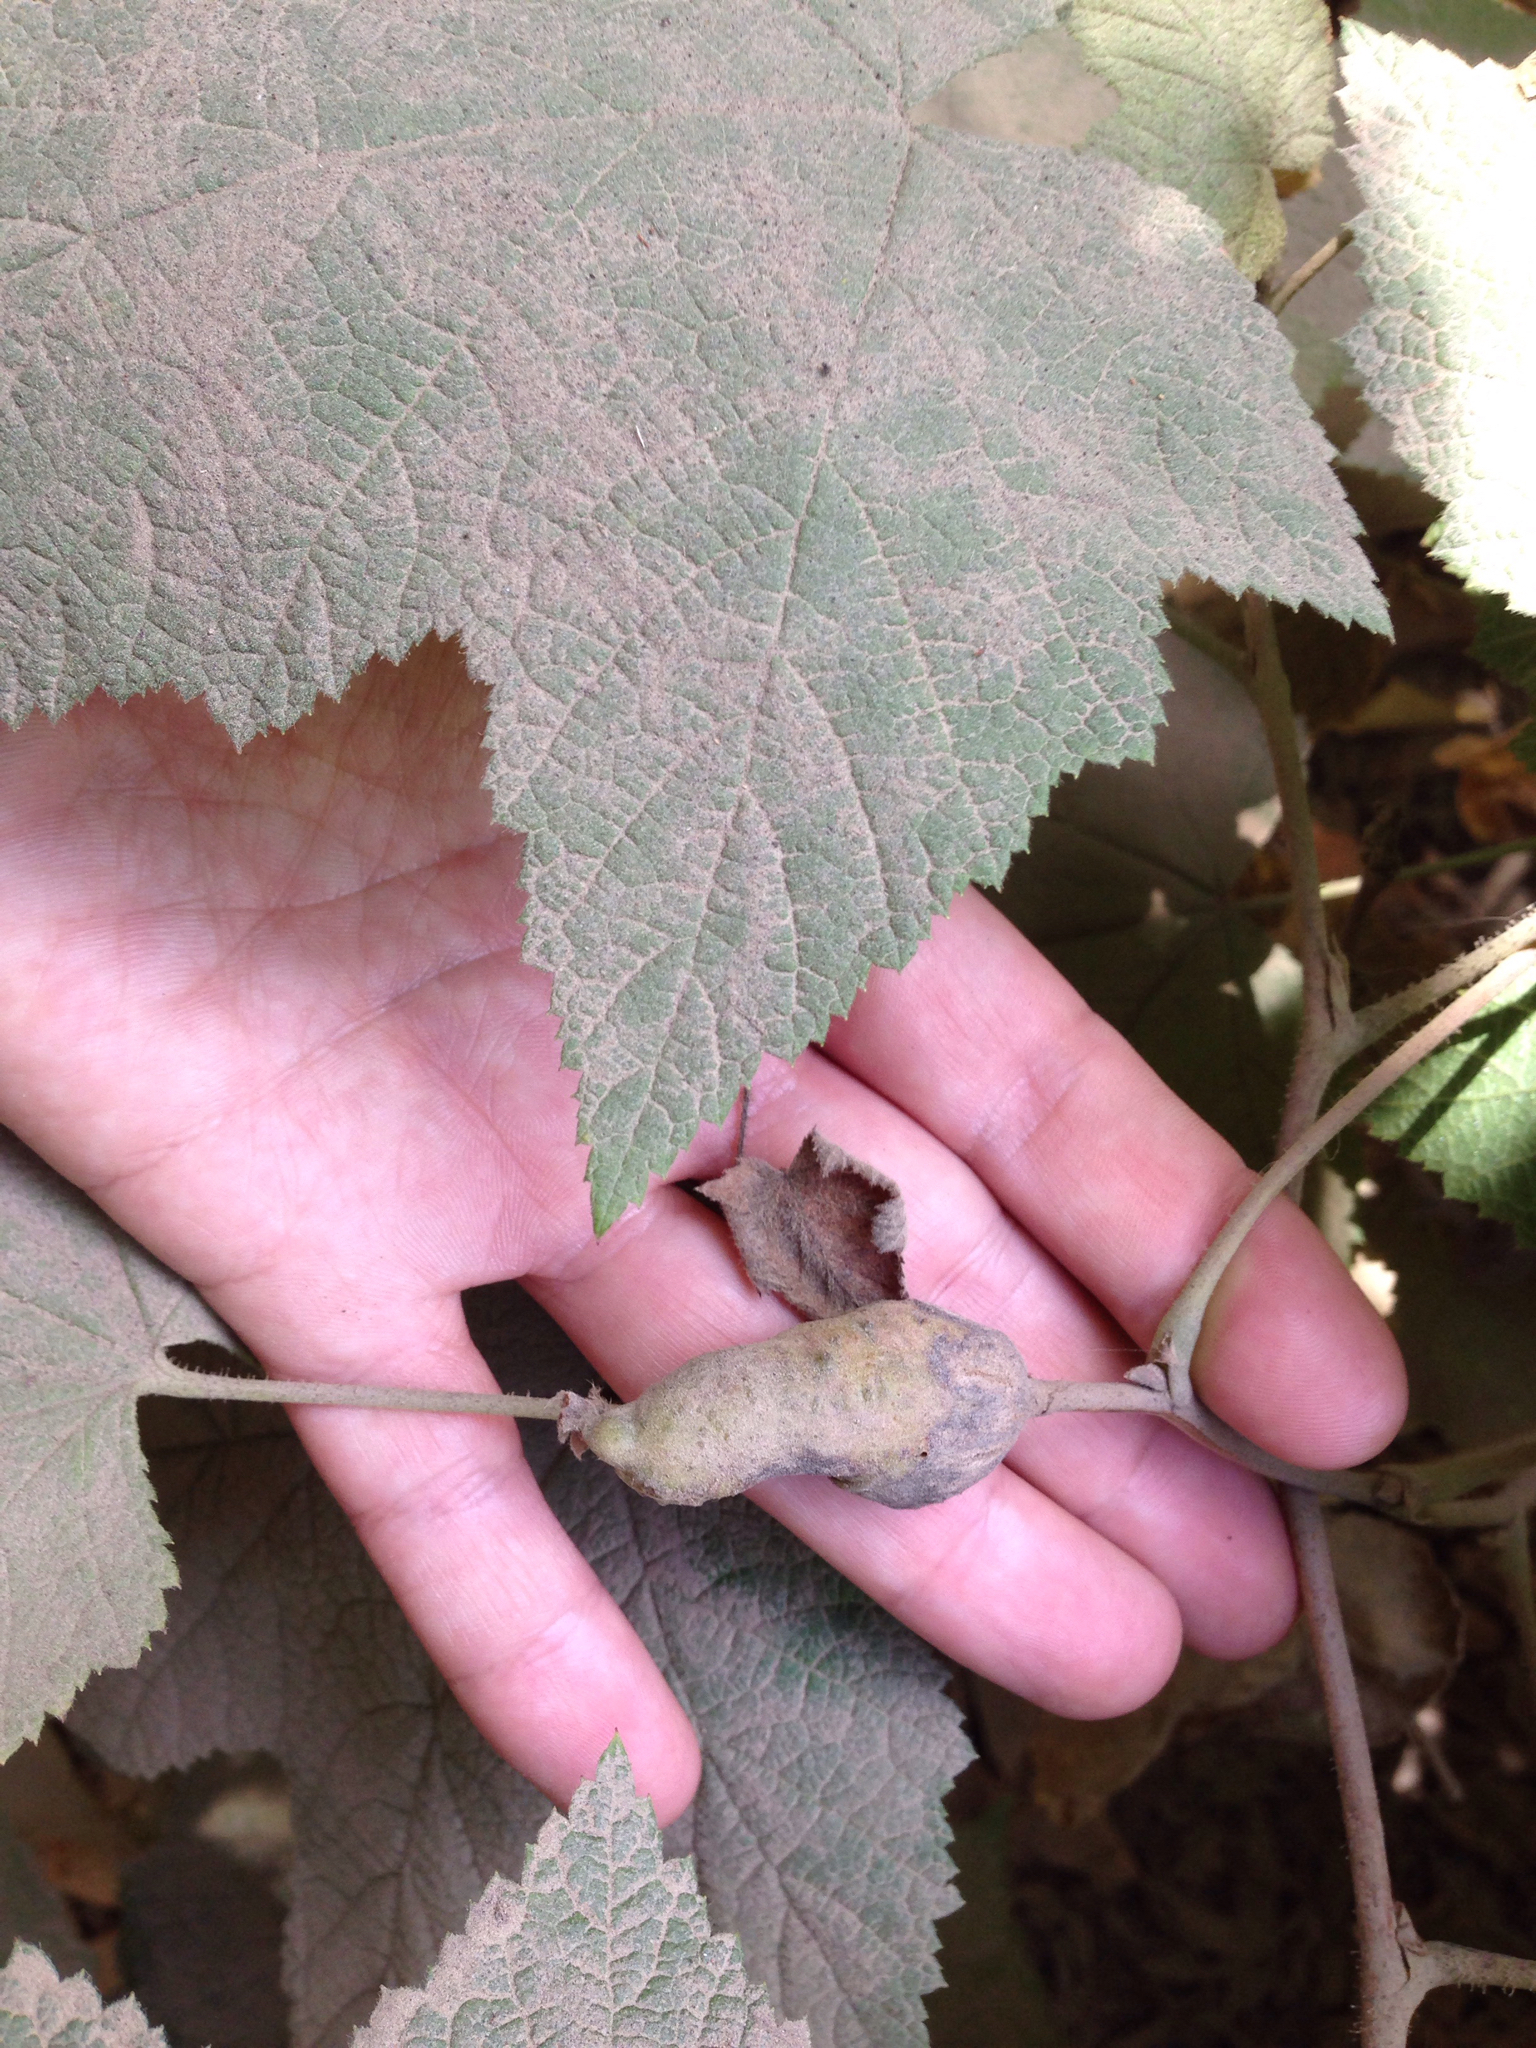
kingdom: Animalia
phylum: Arthropoda
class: Insecta
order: Hymenoptera
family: Cynipidae
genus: Diastrophus
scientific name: Diastrophus
